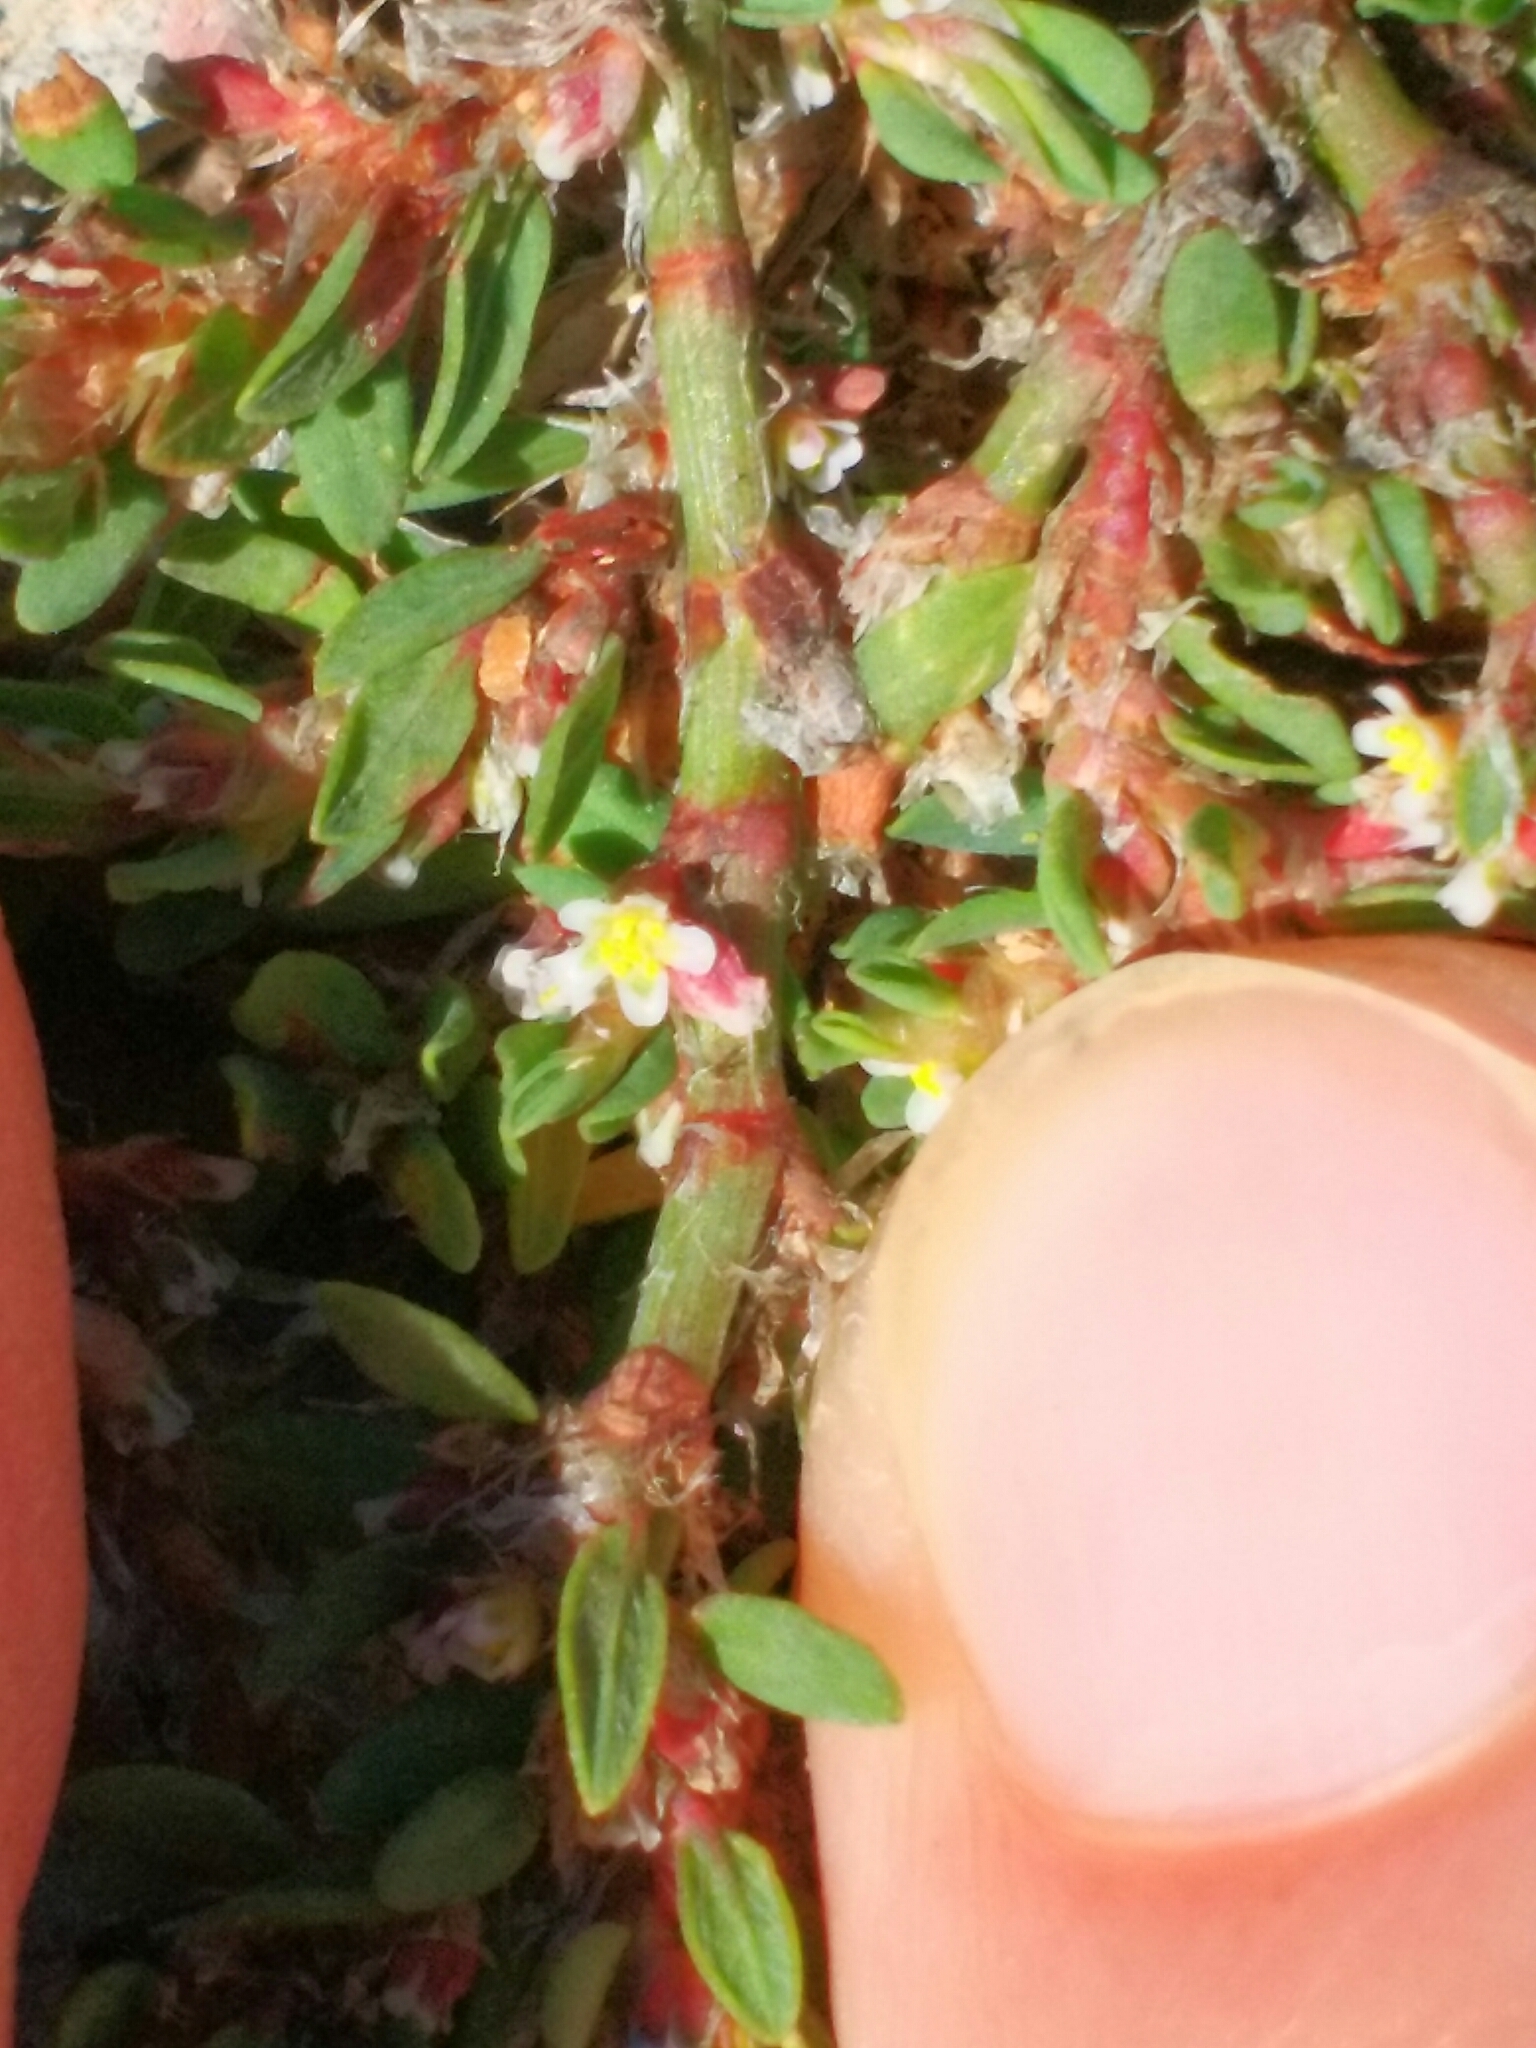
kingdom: Plantae
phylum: Tracheophyta
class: Magnoliopsida
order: Malpighiales
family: Euphorbiaceae
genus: Euphorbia
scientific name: Euphorbia maculata
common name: Spotted spurge
